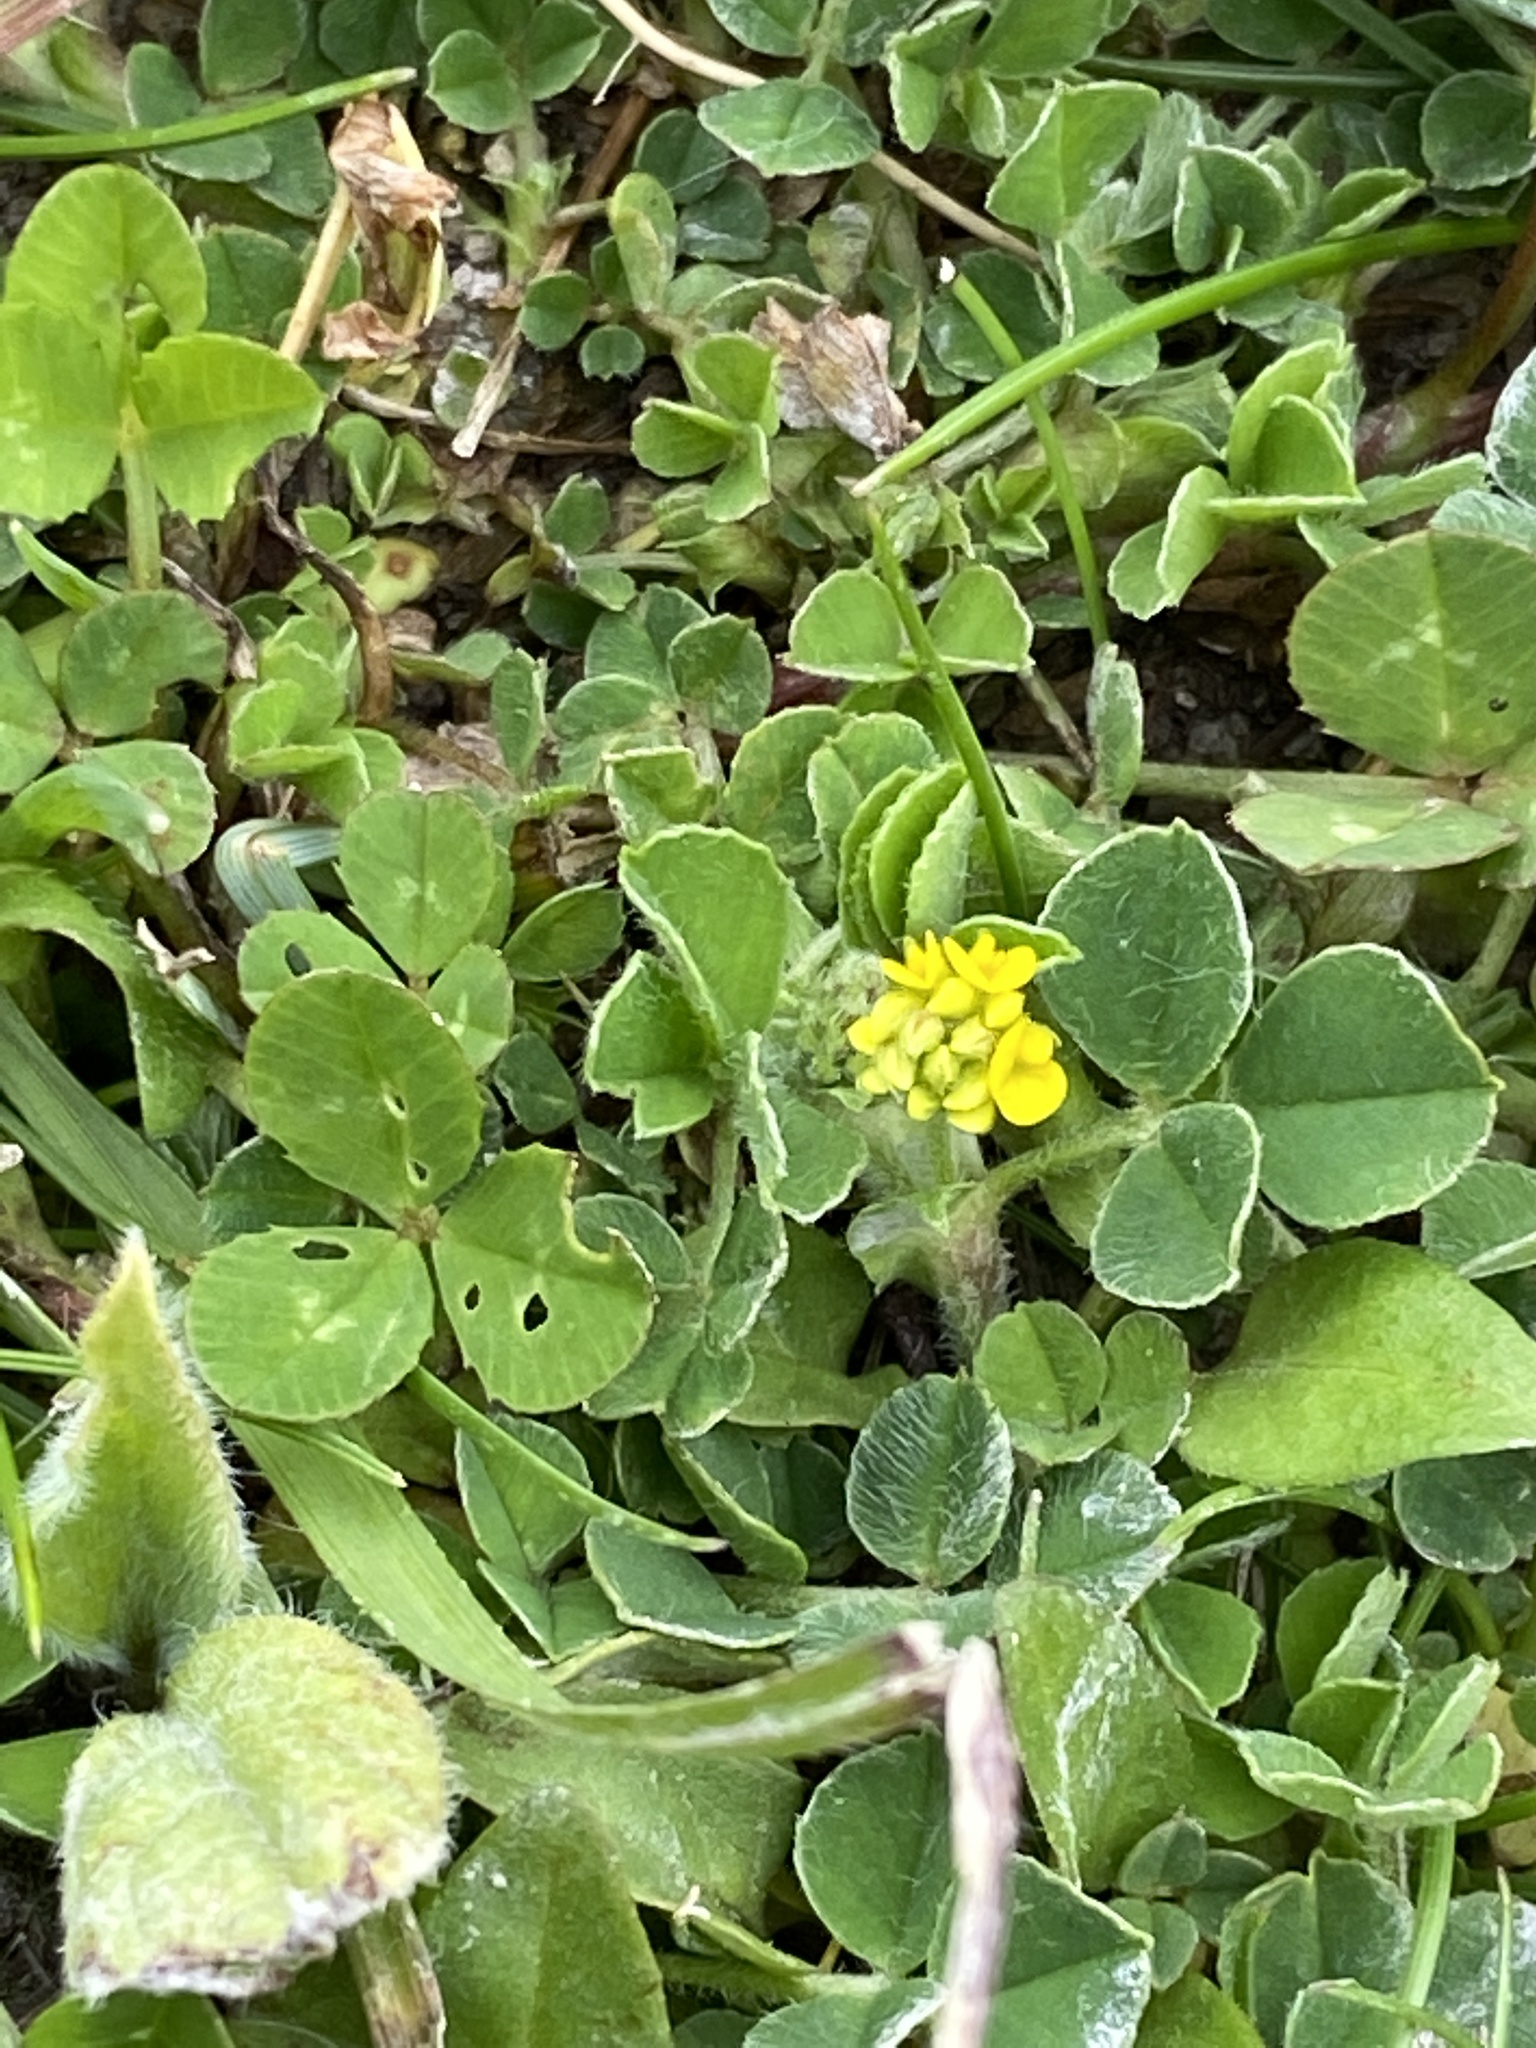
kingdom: Plantae
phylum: Tracheophyta
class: Magnoliopsida
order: Fabales
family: Fabaceae
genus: Medicago
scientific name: Medicago lupulina
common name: Black medick
